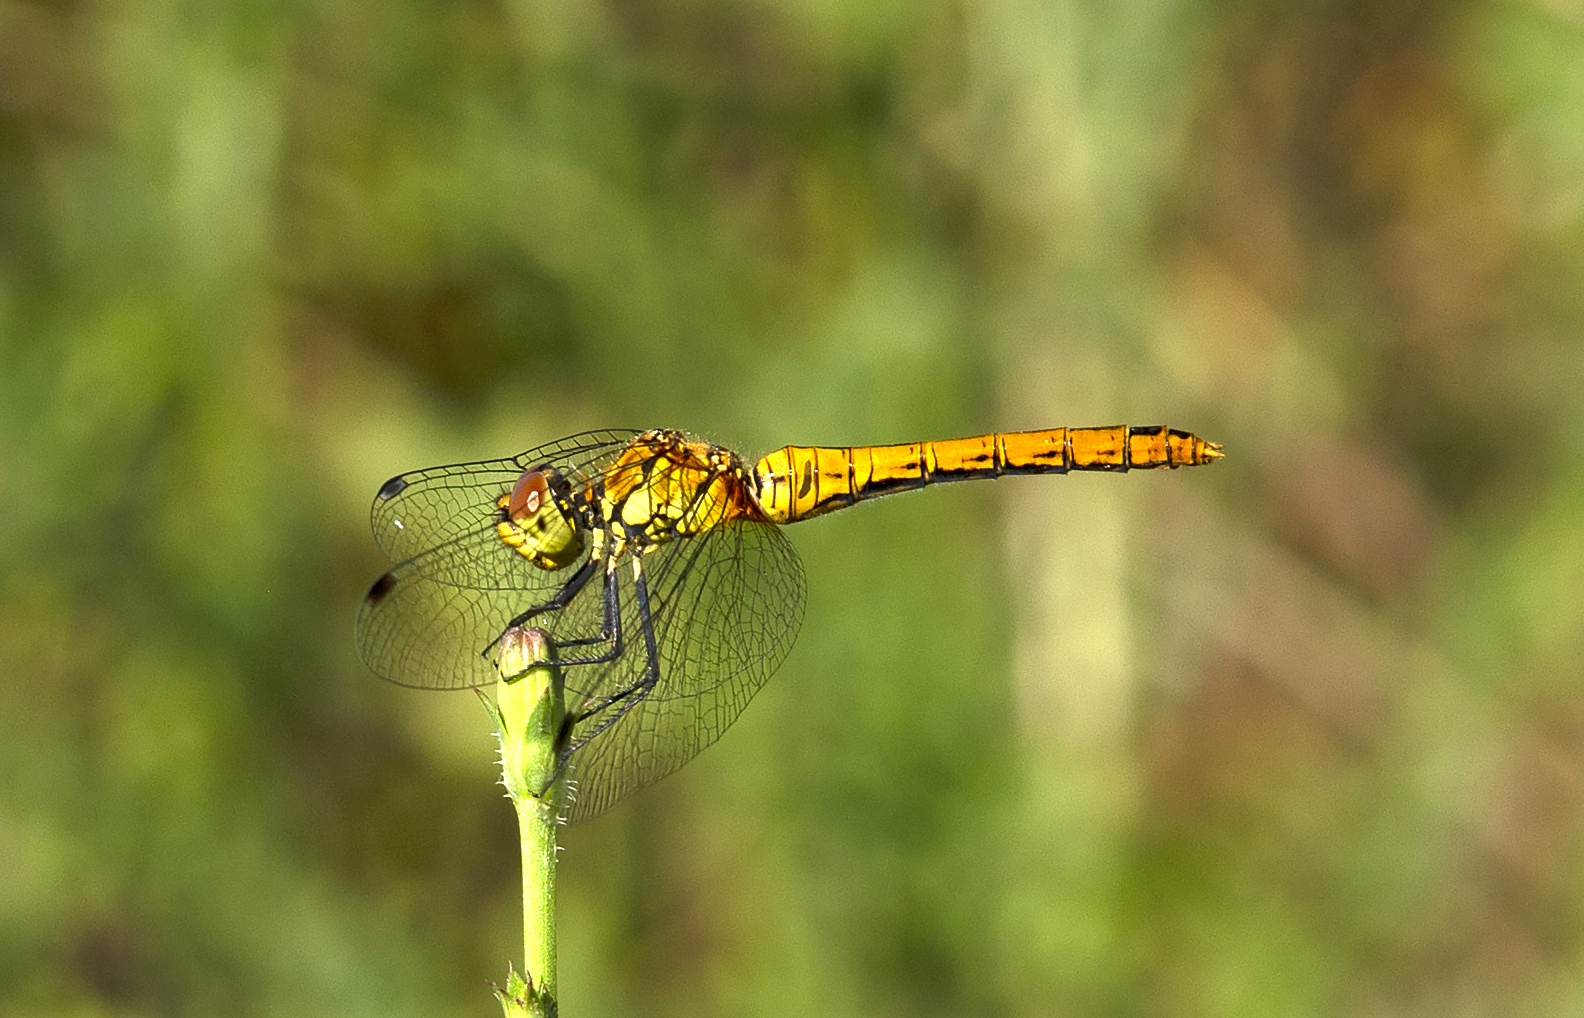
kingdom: Animalia
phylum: Arthropoda
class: Insecta
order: Odonata
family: Libellulidae
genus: Sympetrum
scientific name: Sympetrum sanguineum
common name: Ruddy darter
